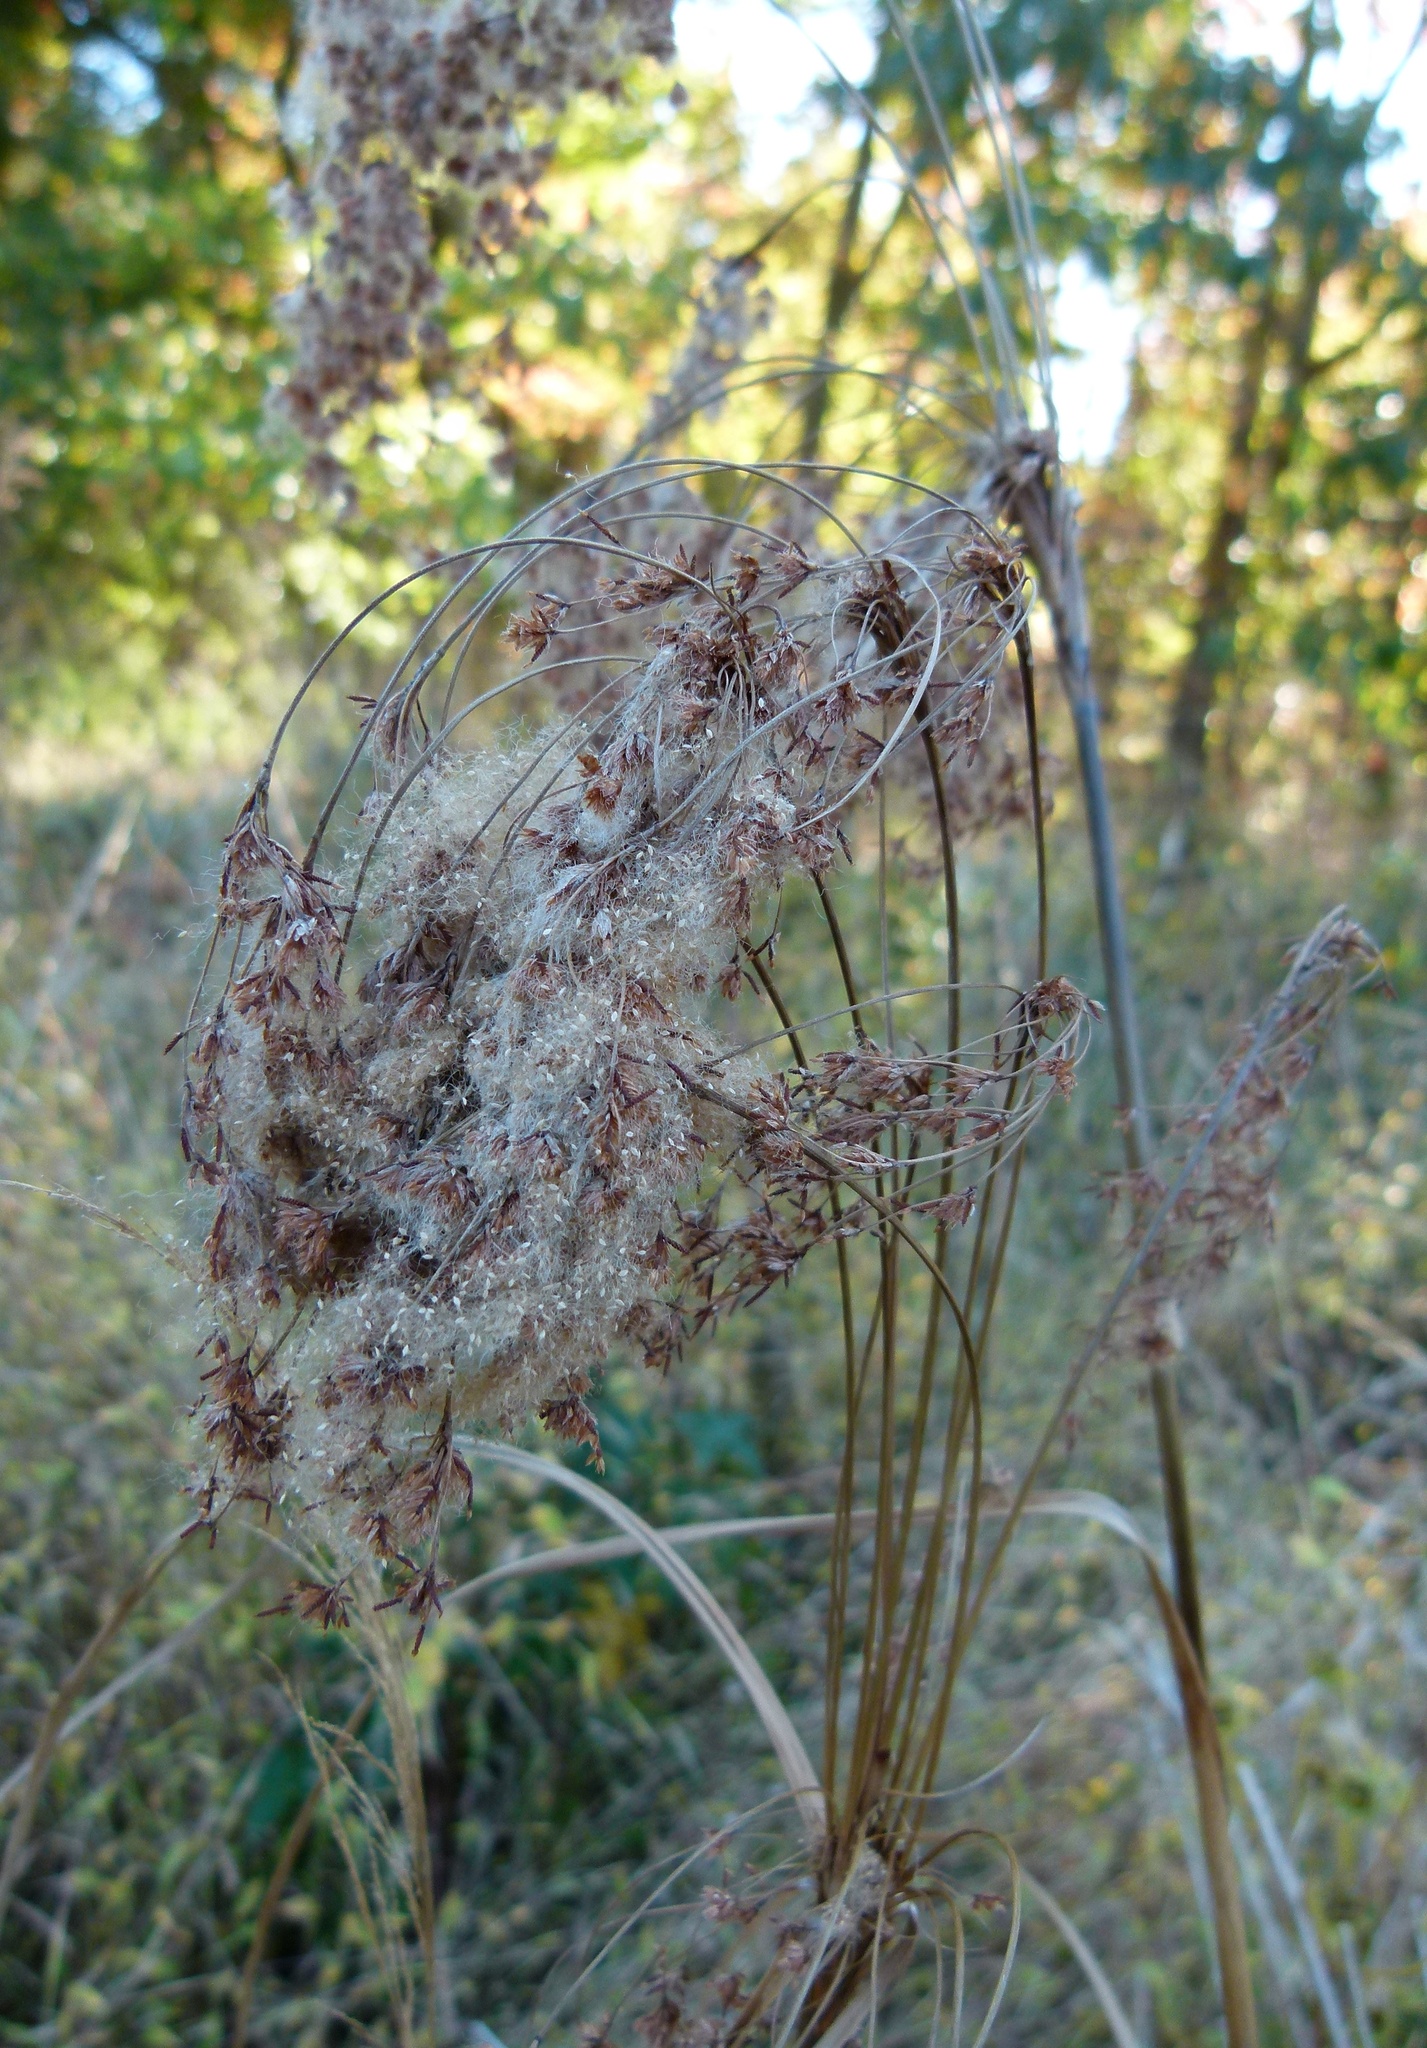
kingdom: Plantae
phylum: Tracheophyta
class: Liliopsida
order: Poales
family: Cyperaceae
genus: Scirpus
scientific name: Scirpus cyperinus
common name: Black-sheathed bulrush
